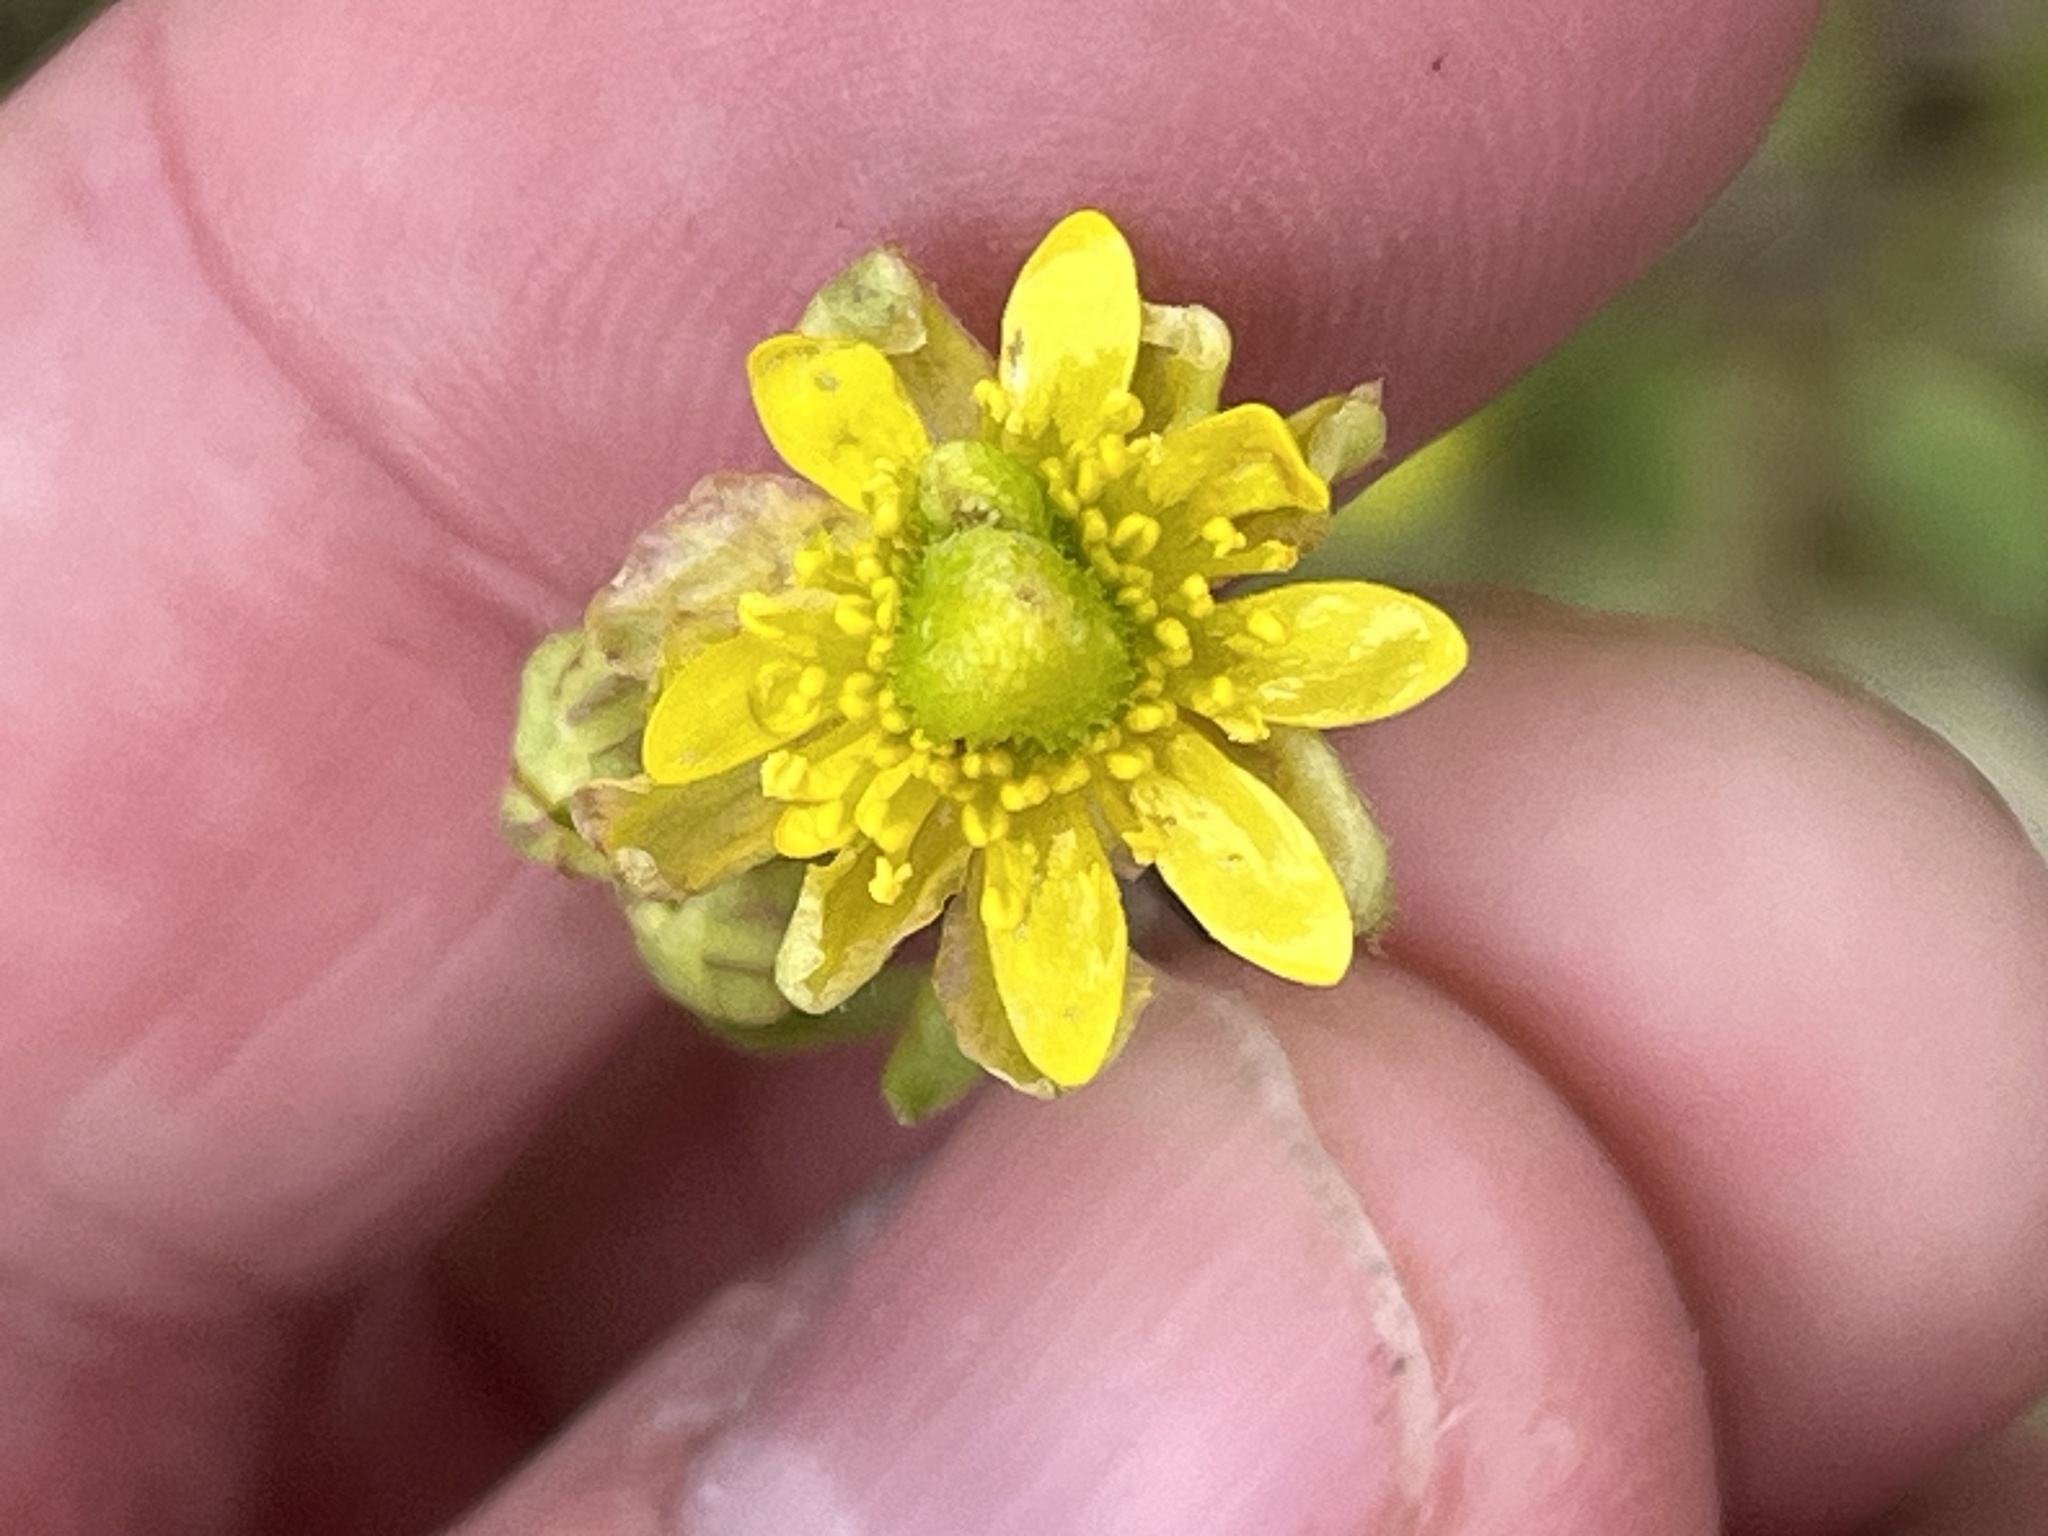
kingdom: Plantae
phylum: Tracheophyta
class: Magnoliopsida
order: Ranunculales
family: Ranunculaceae
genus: Halerpestes
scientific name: Halerpestes cymbalaria
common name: Seaside crowfoot
